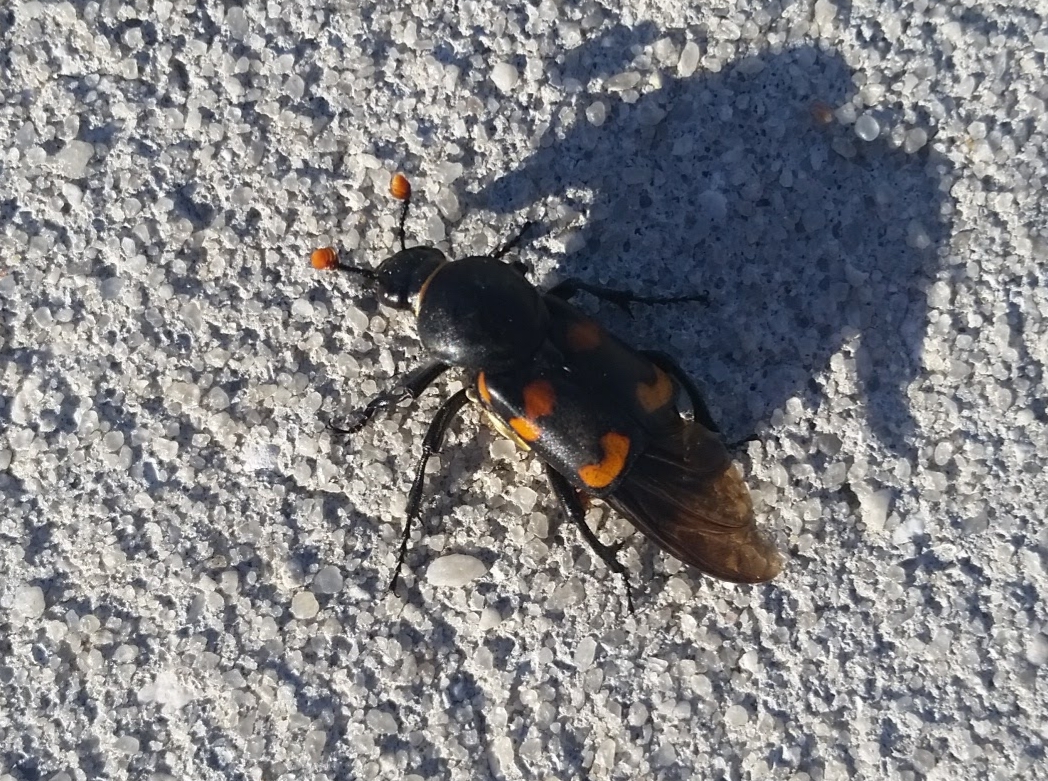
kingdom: Animalia
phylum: Arthropoda
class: Insecta
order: Coleoptera
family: Staphylinidae
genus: Nicrophorus
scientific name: Nicrophorus carolinus
